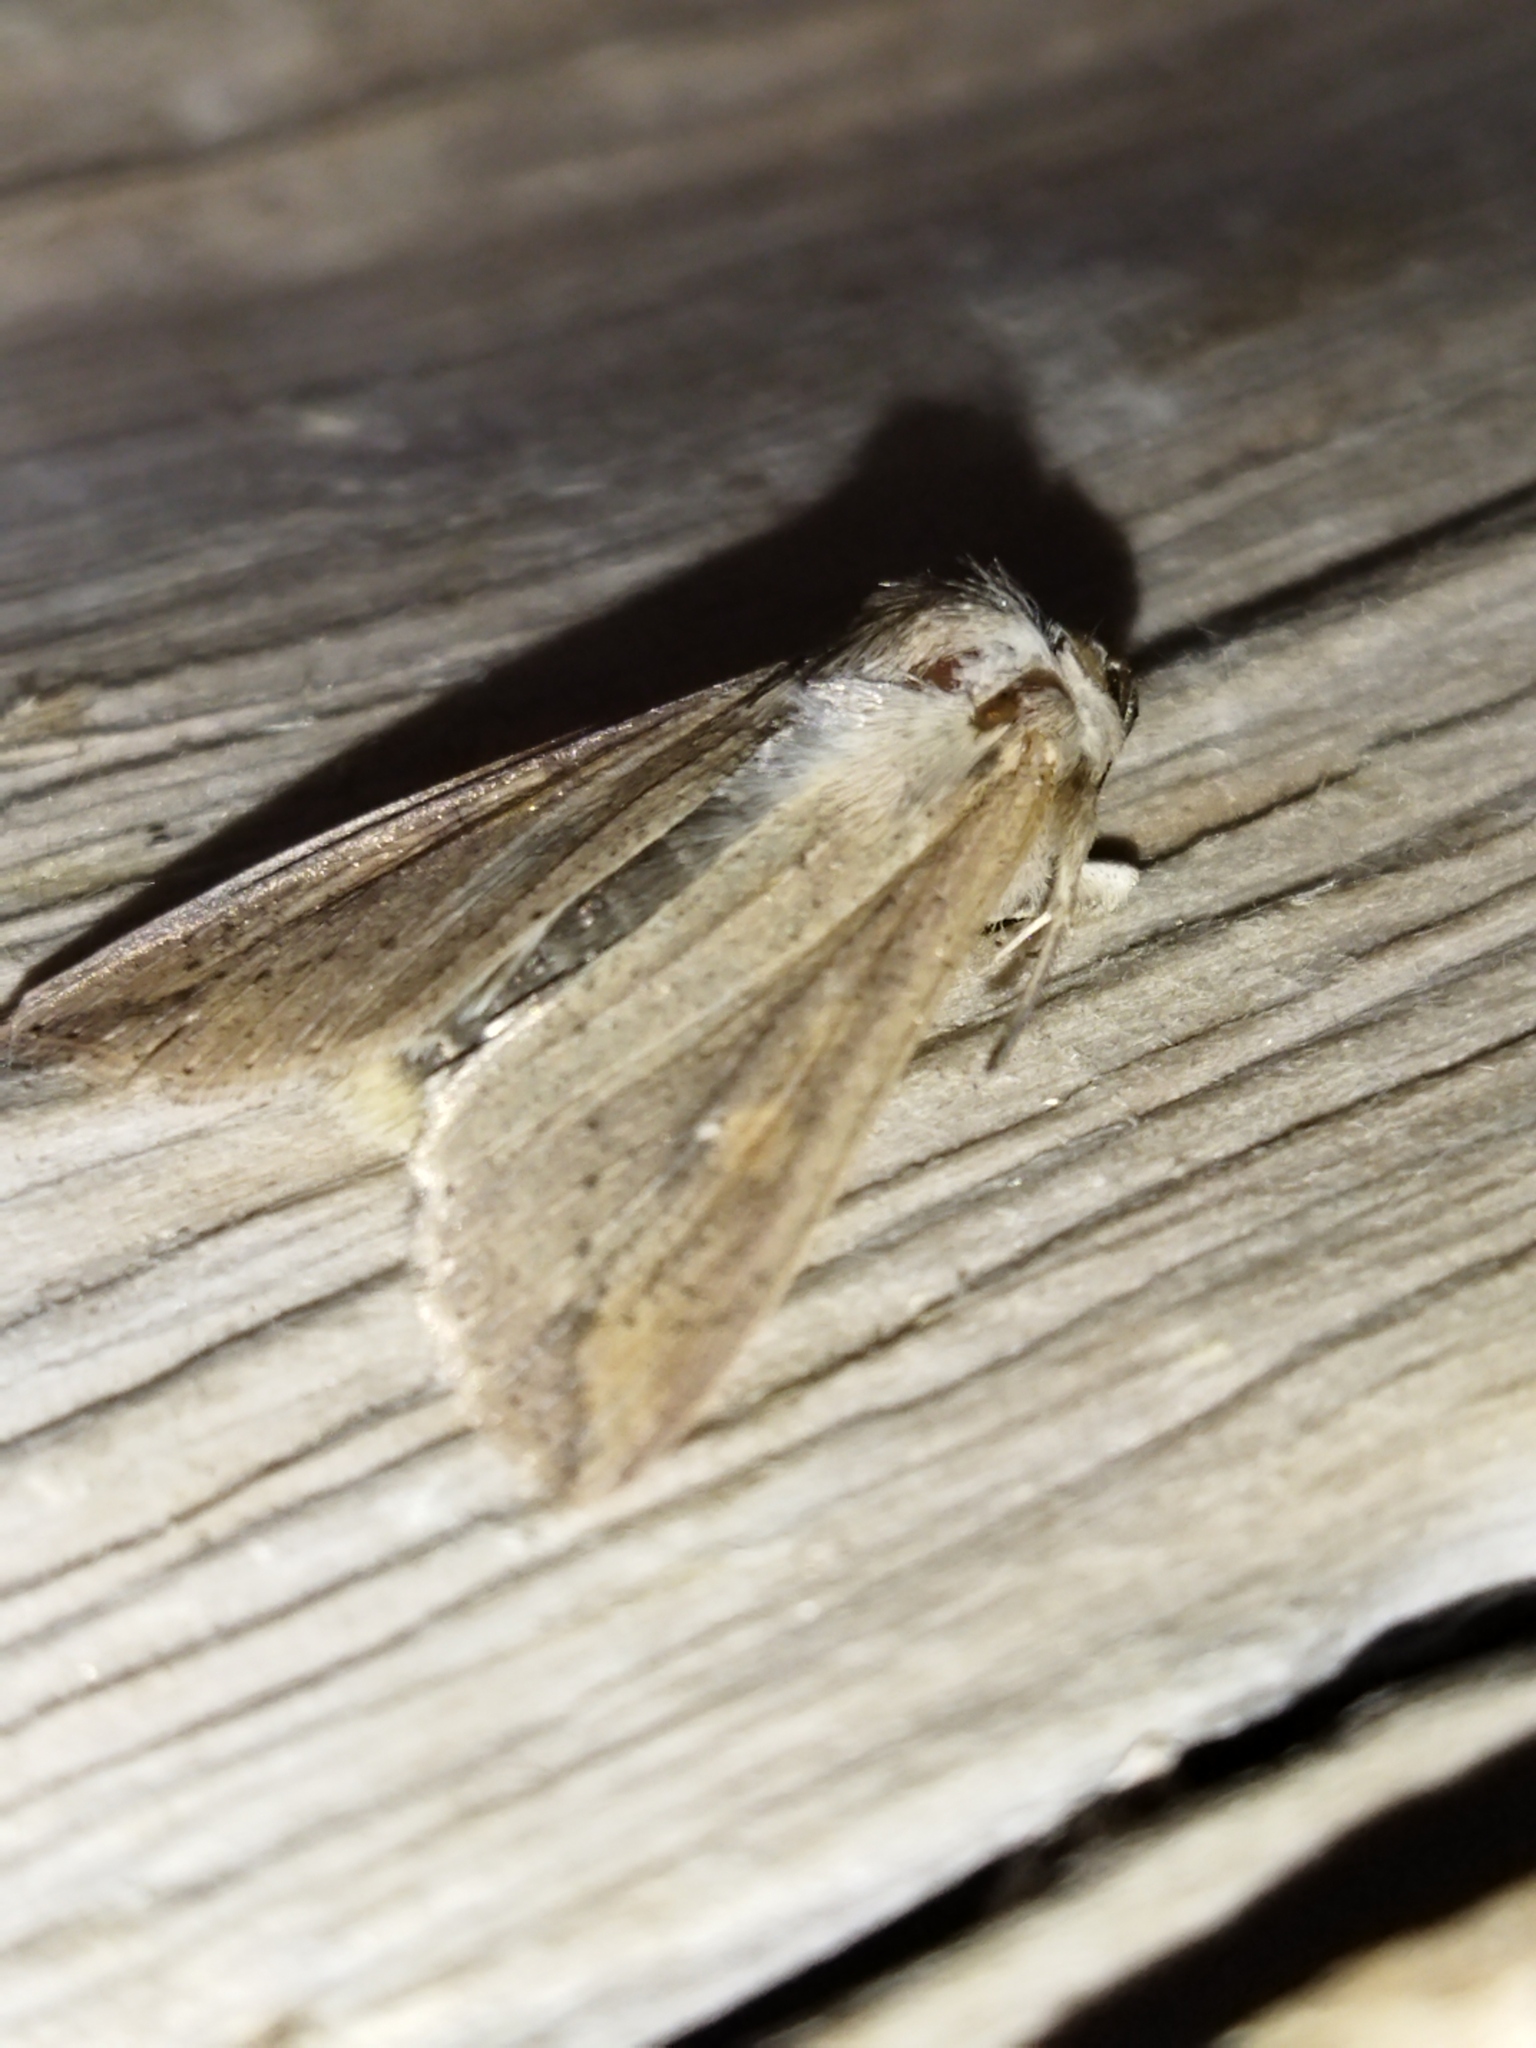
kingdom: Animalia
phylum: Arthropoda
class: Insecta
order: Lepidoptera
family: Noctuidae
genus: Mythimna
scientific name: Mythimna unipuncta
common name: White-speck
